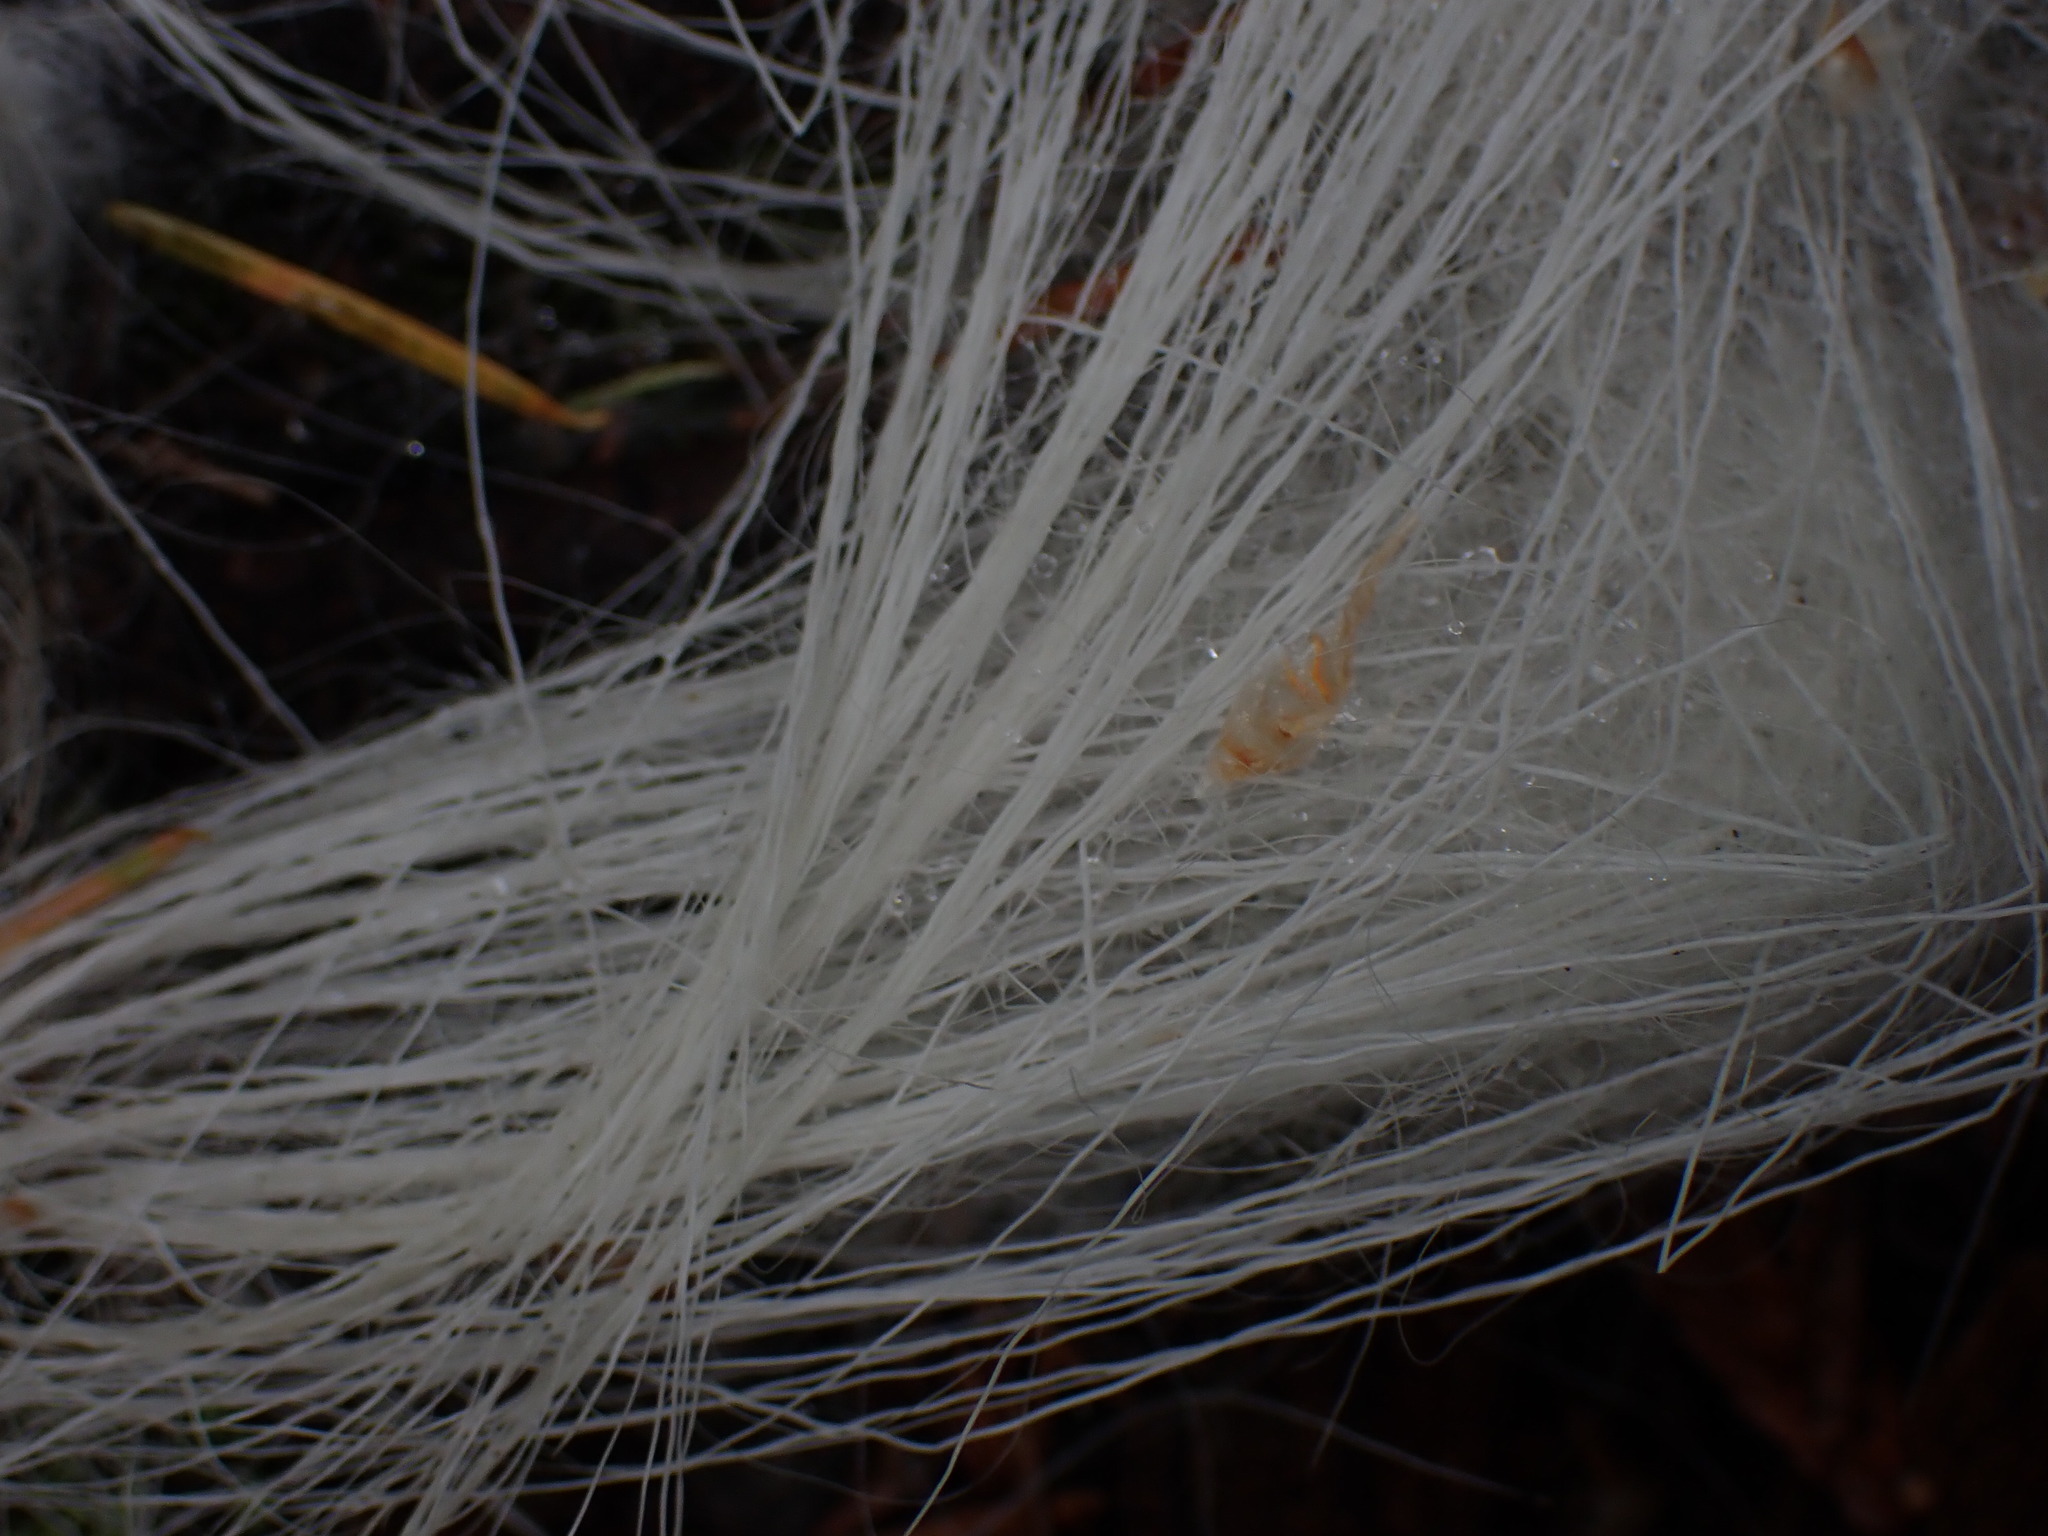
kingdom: Animalia
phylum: Chordata
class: Mammalia
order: Artiodactyla
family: Bovidae
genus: Oreamnos
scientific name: Oreamnos americanus
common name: Mountain goat
